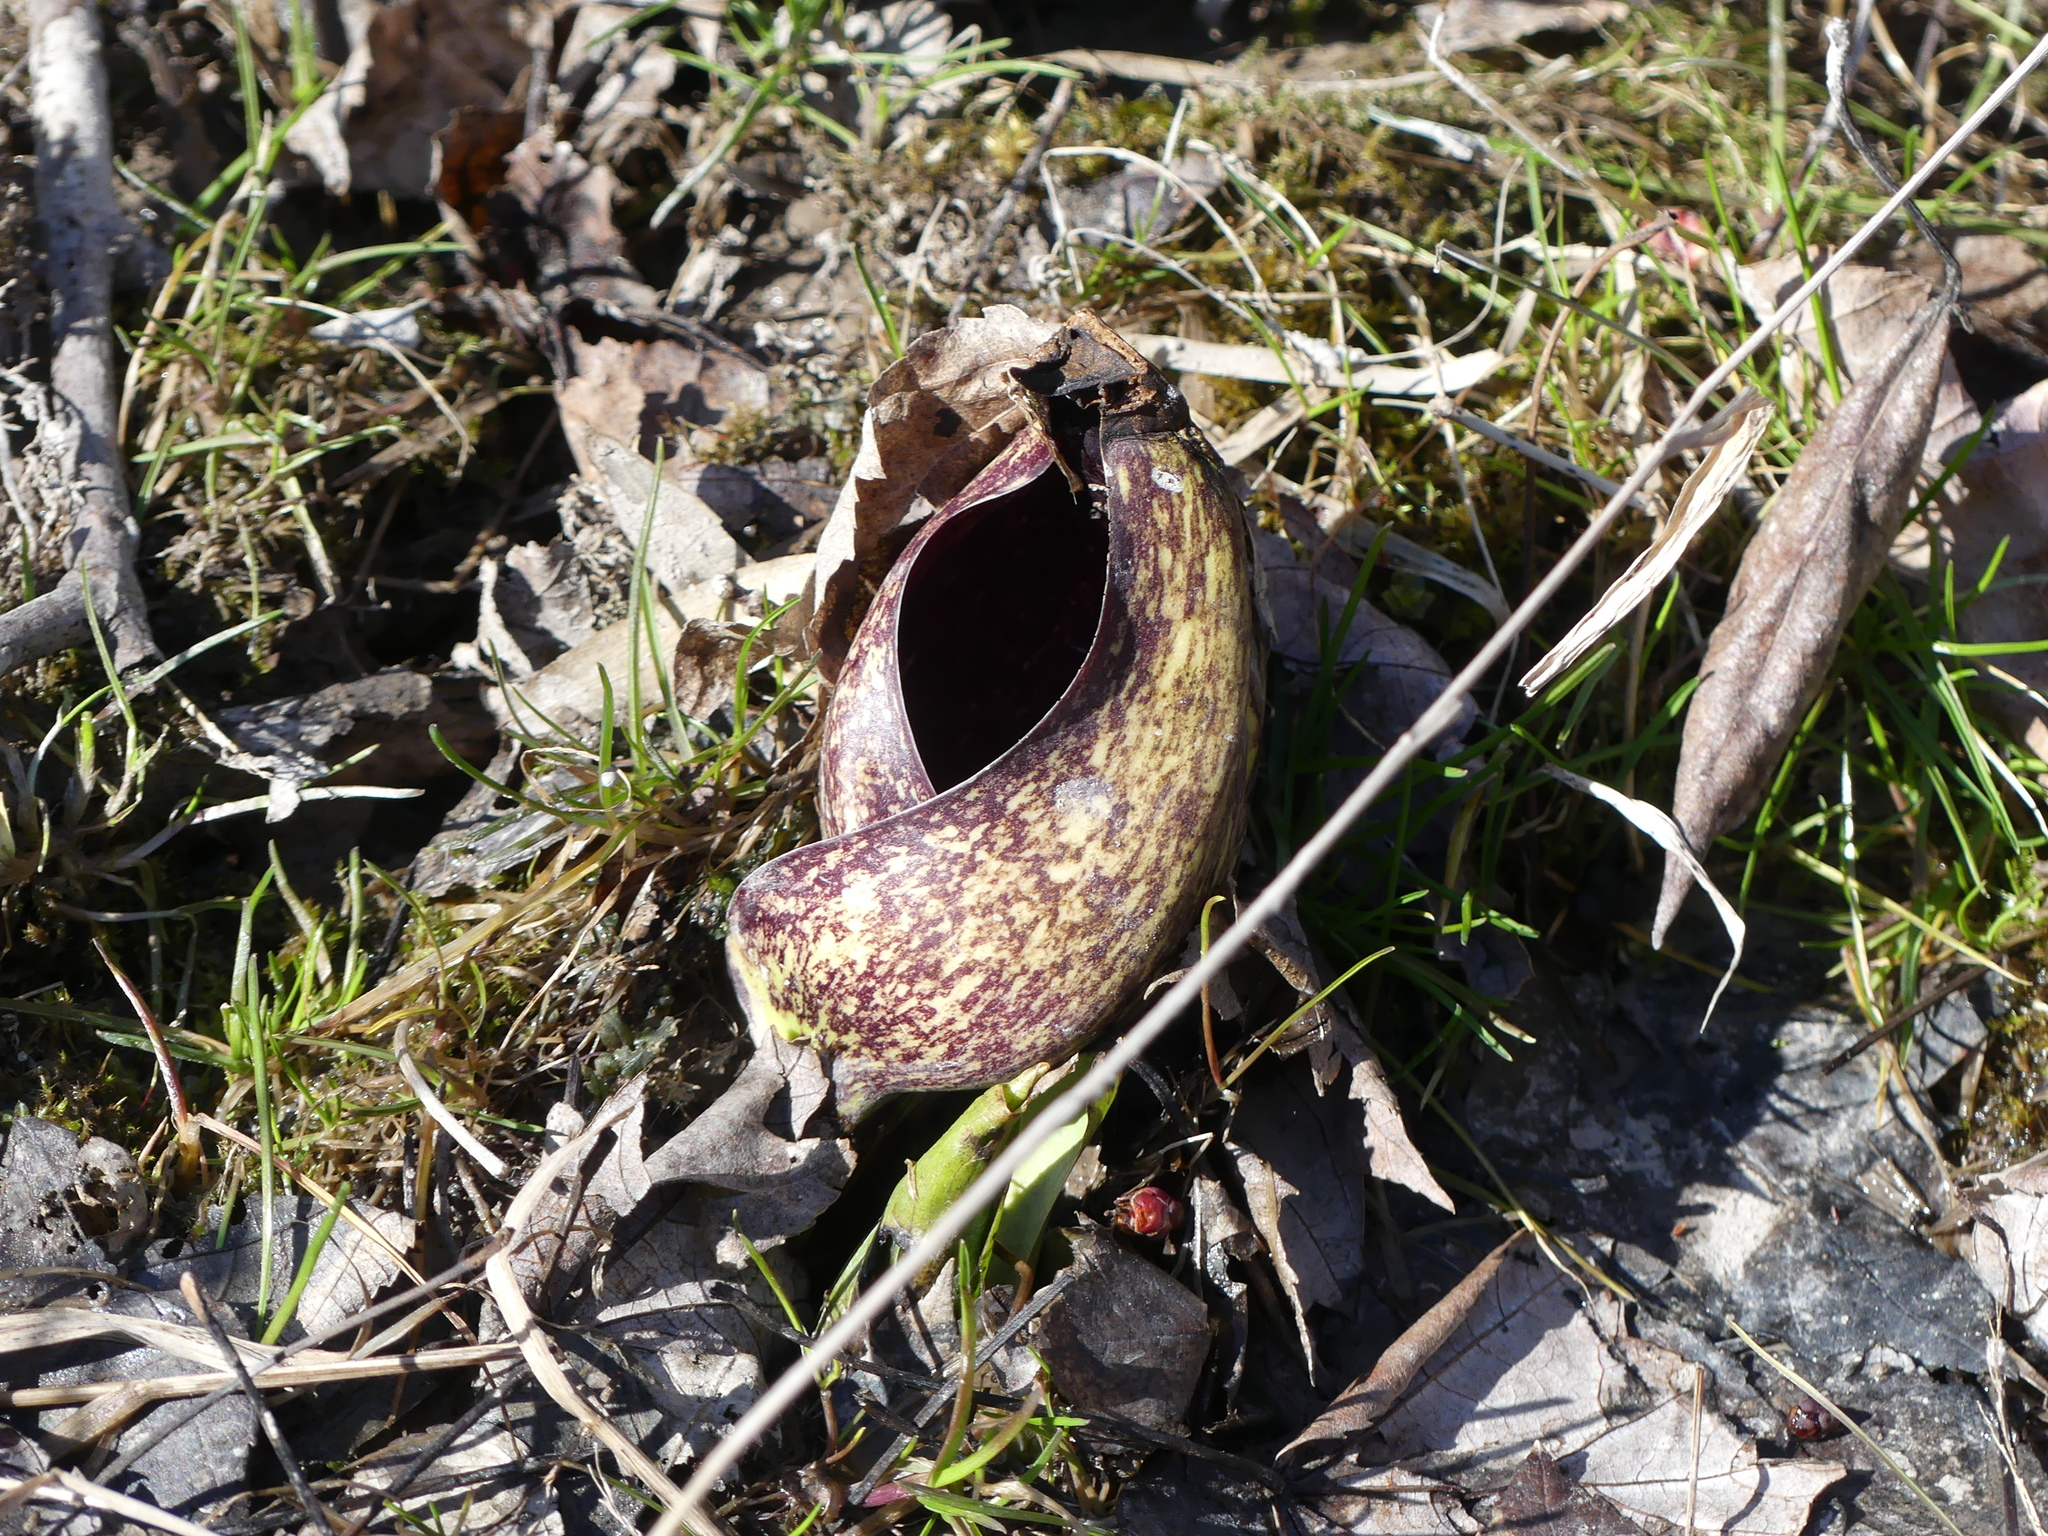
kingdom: Plantae
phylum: Tracheophyta
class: Liliopsida
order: Alismatales
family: Araceae
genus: Symplocarpus
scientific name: Symplocarpus foetidus
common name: Eastern skunk cabbage
